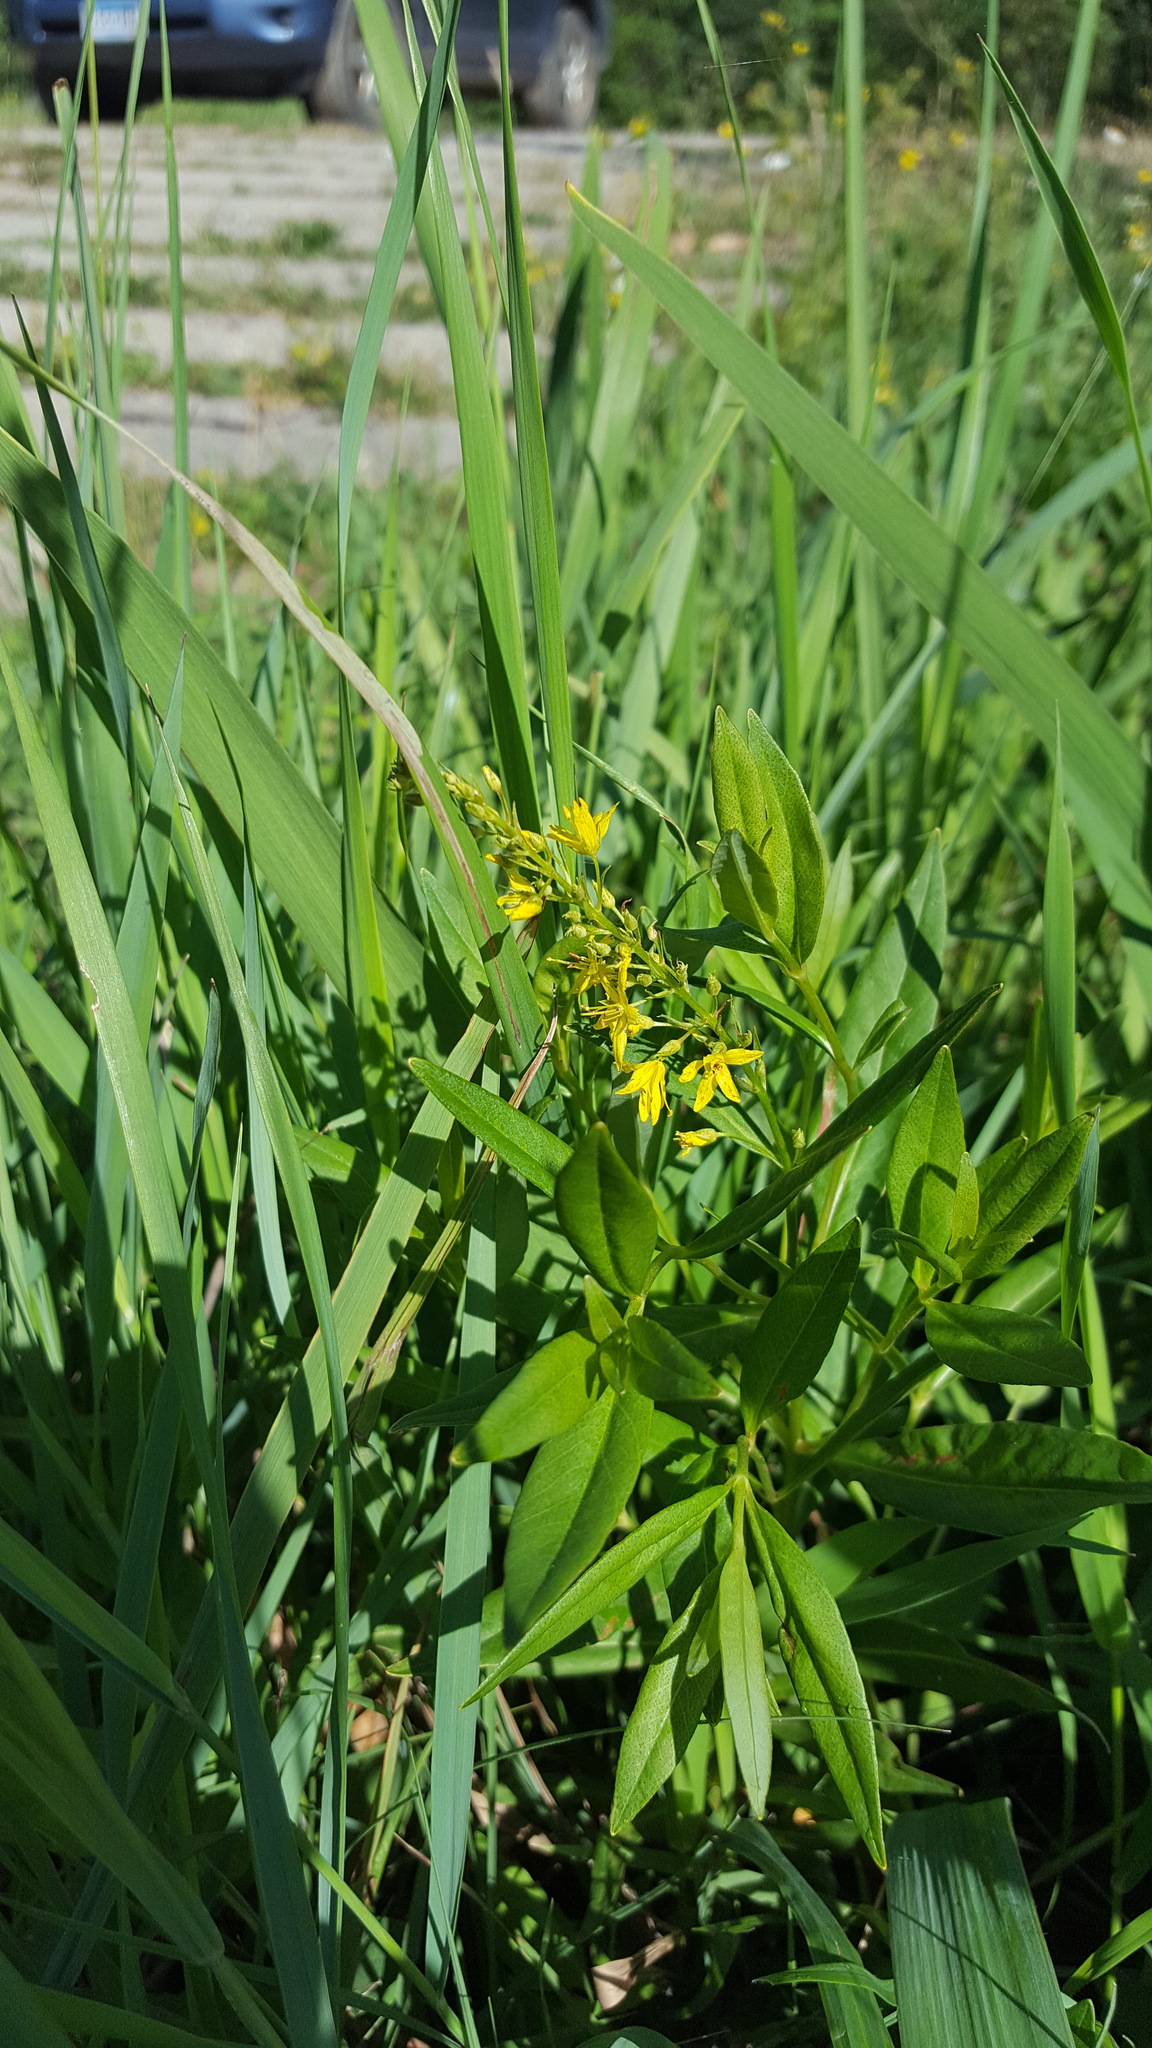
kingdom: Plantae
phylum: Tracheophyta
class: Magnoliopsida
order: Ericales
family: Primulaceae
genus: Lysimachia
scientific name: Lysimachia terrestris
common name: Lake loosestrife
